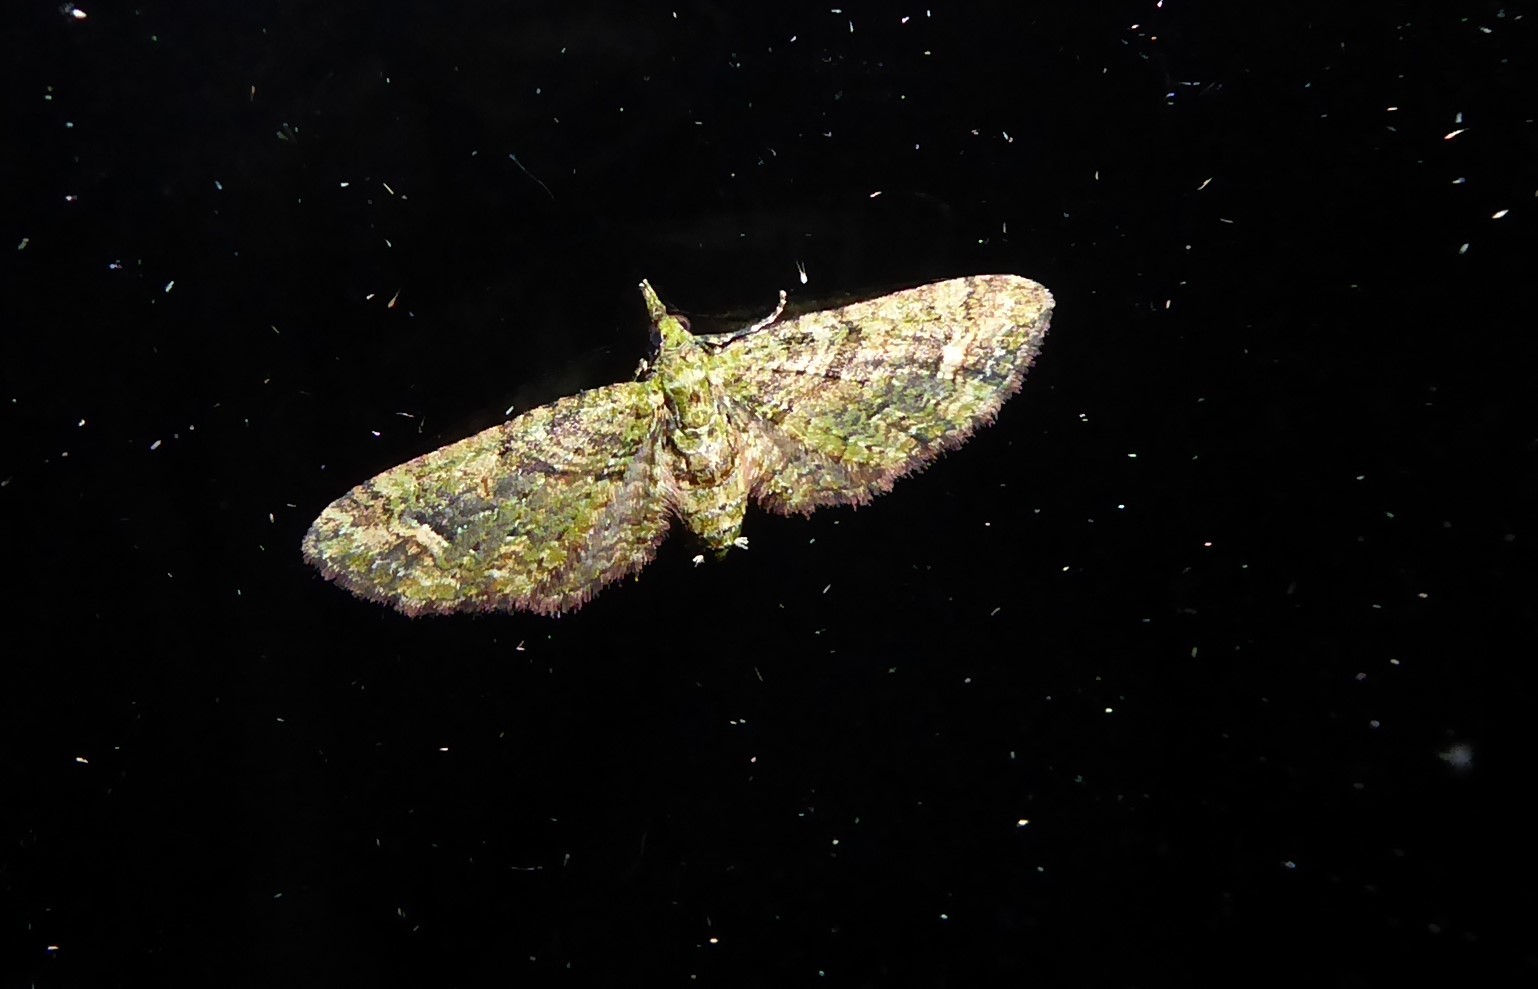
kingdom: Animalia
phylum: Arthropoda
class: Insecta
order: Lepidoptera
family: Geometridae
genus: Idaea
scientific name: Idaea mutanda
